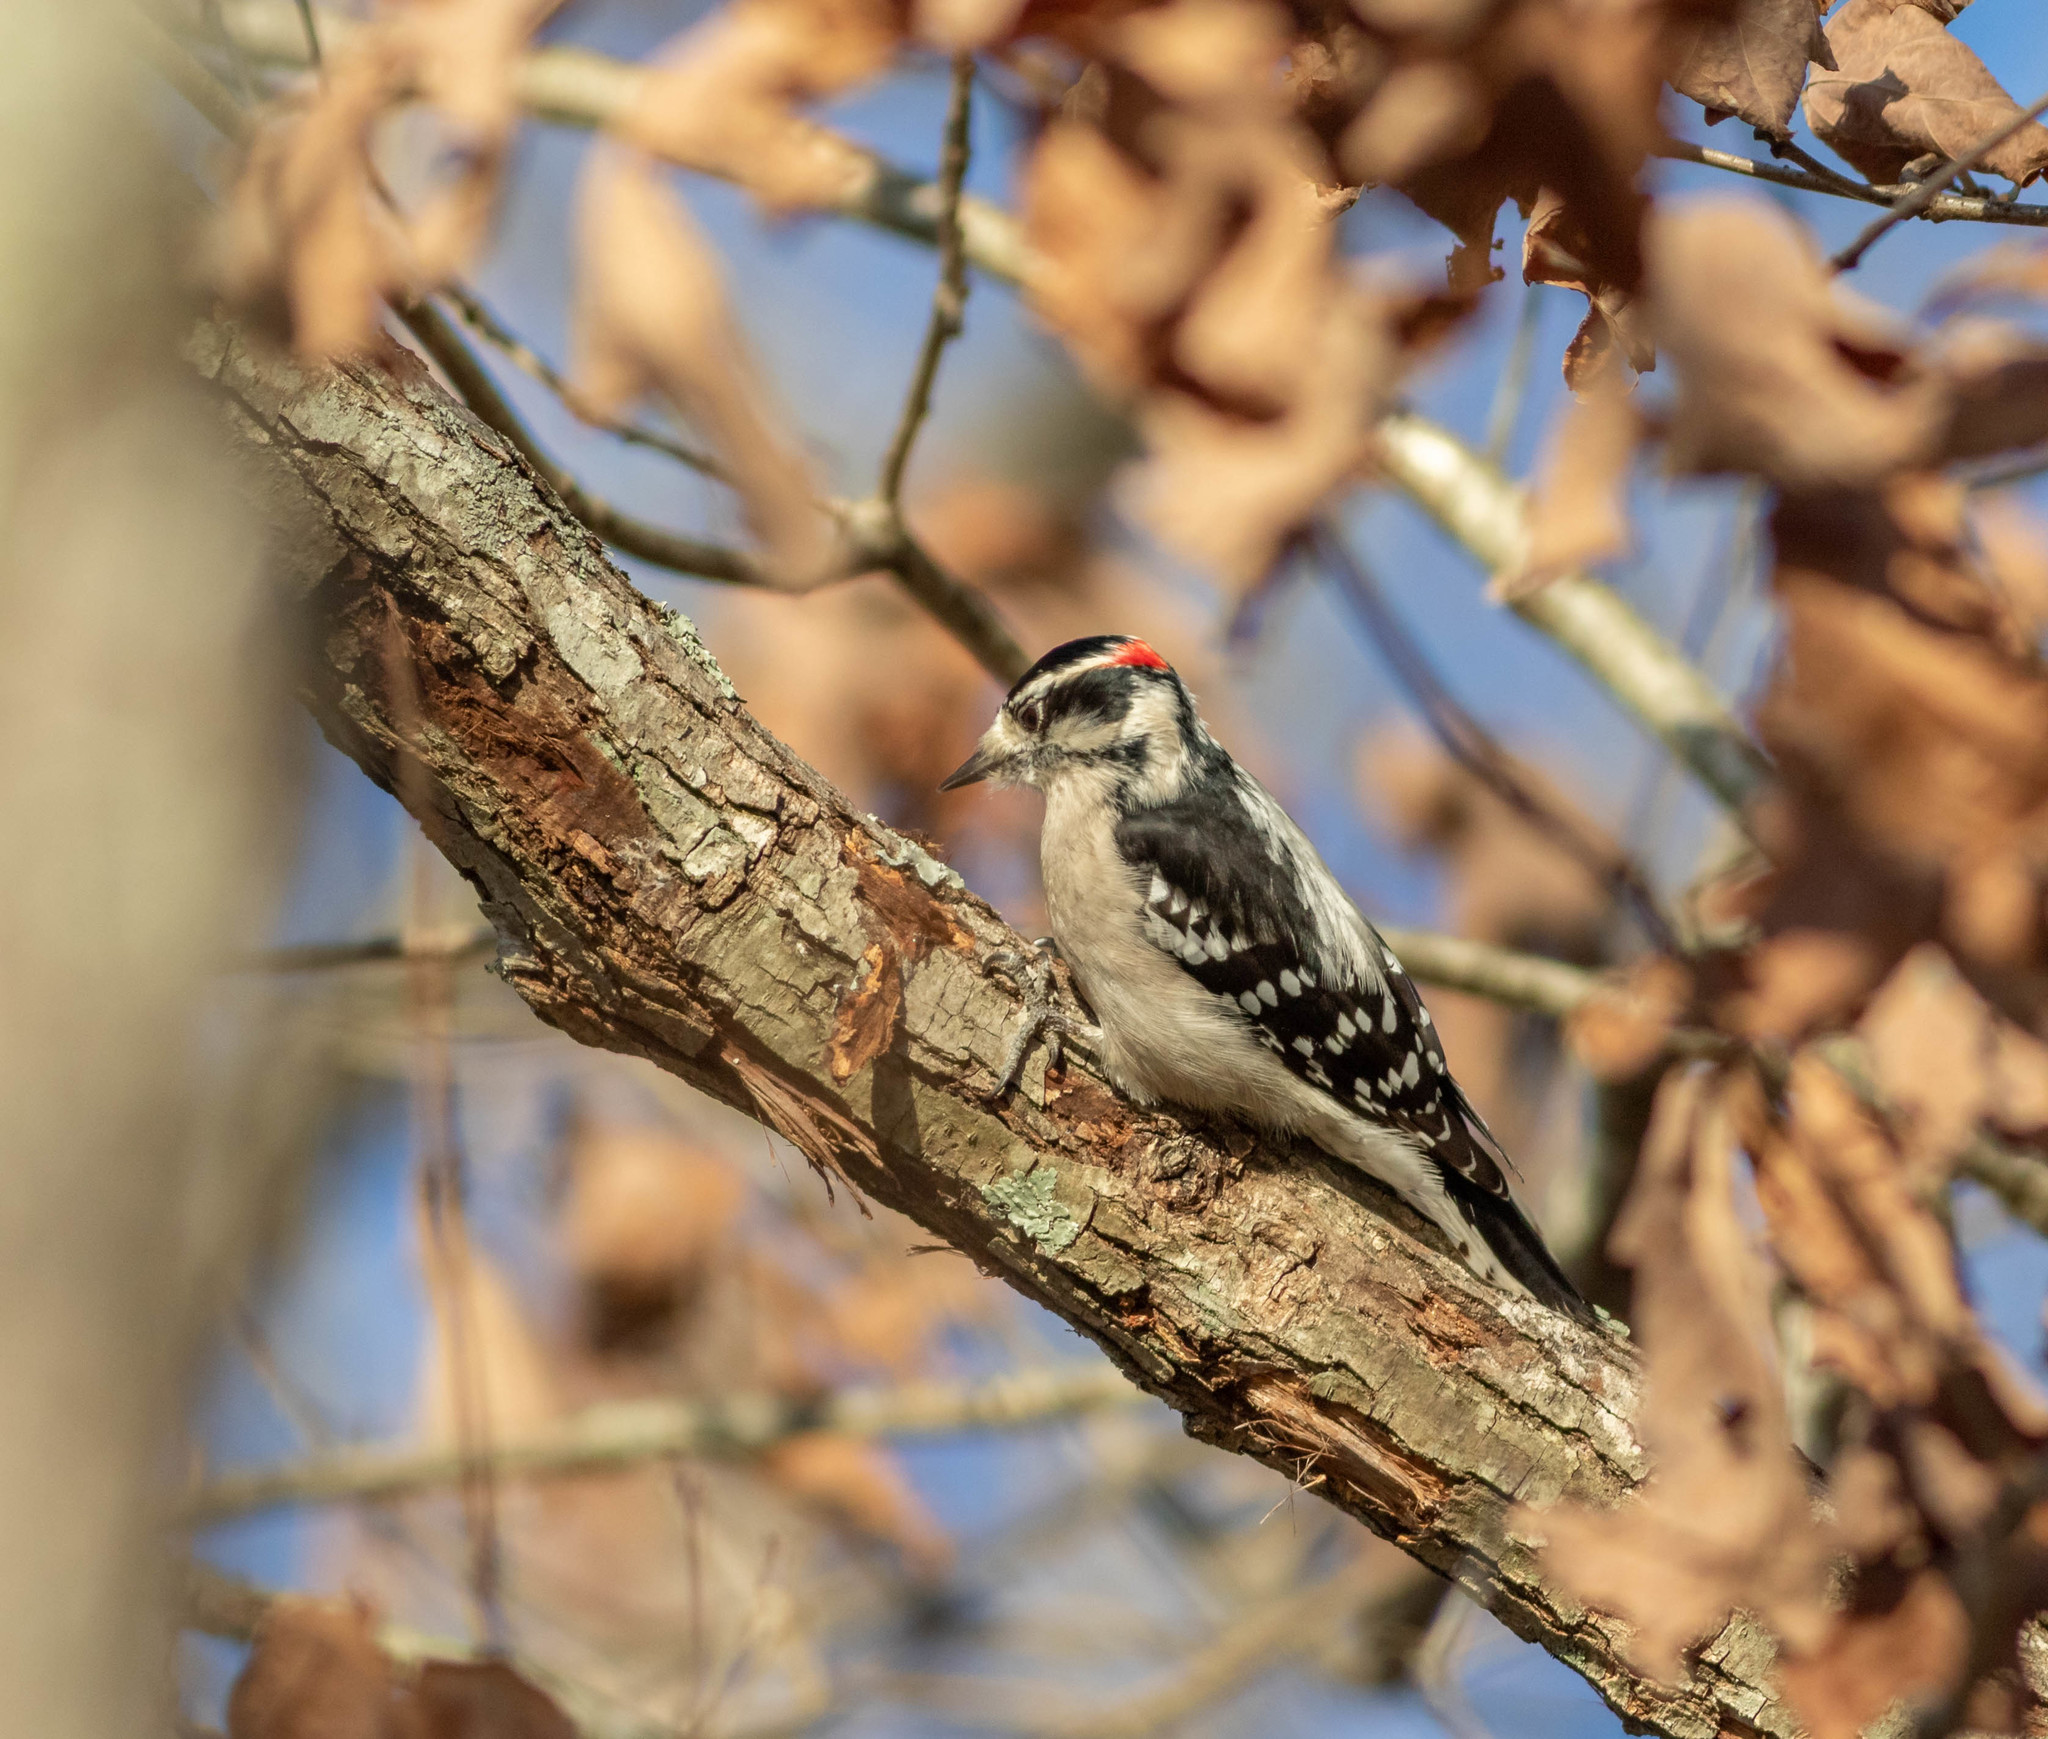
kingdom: Animalia
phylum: Chordata
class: Aves
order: Piciformes
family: Picidae
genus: Dryobates
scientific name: Dryobates pubescens
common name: Downy woodpecker
